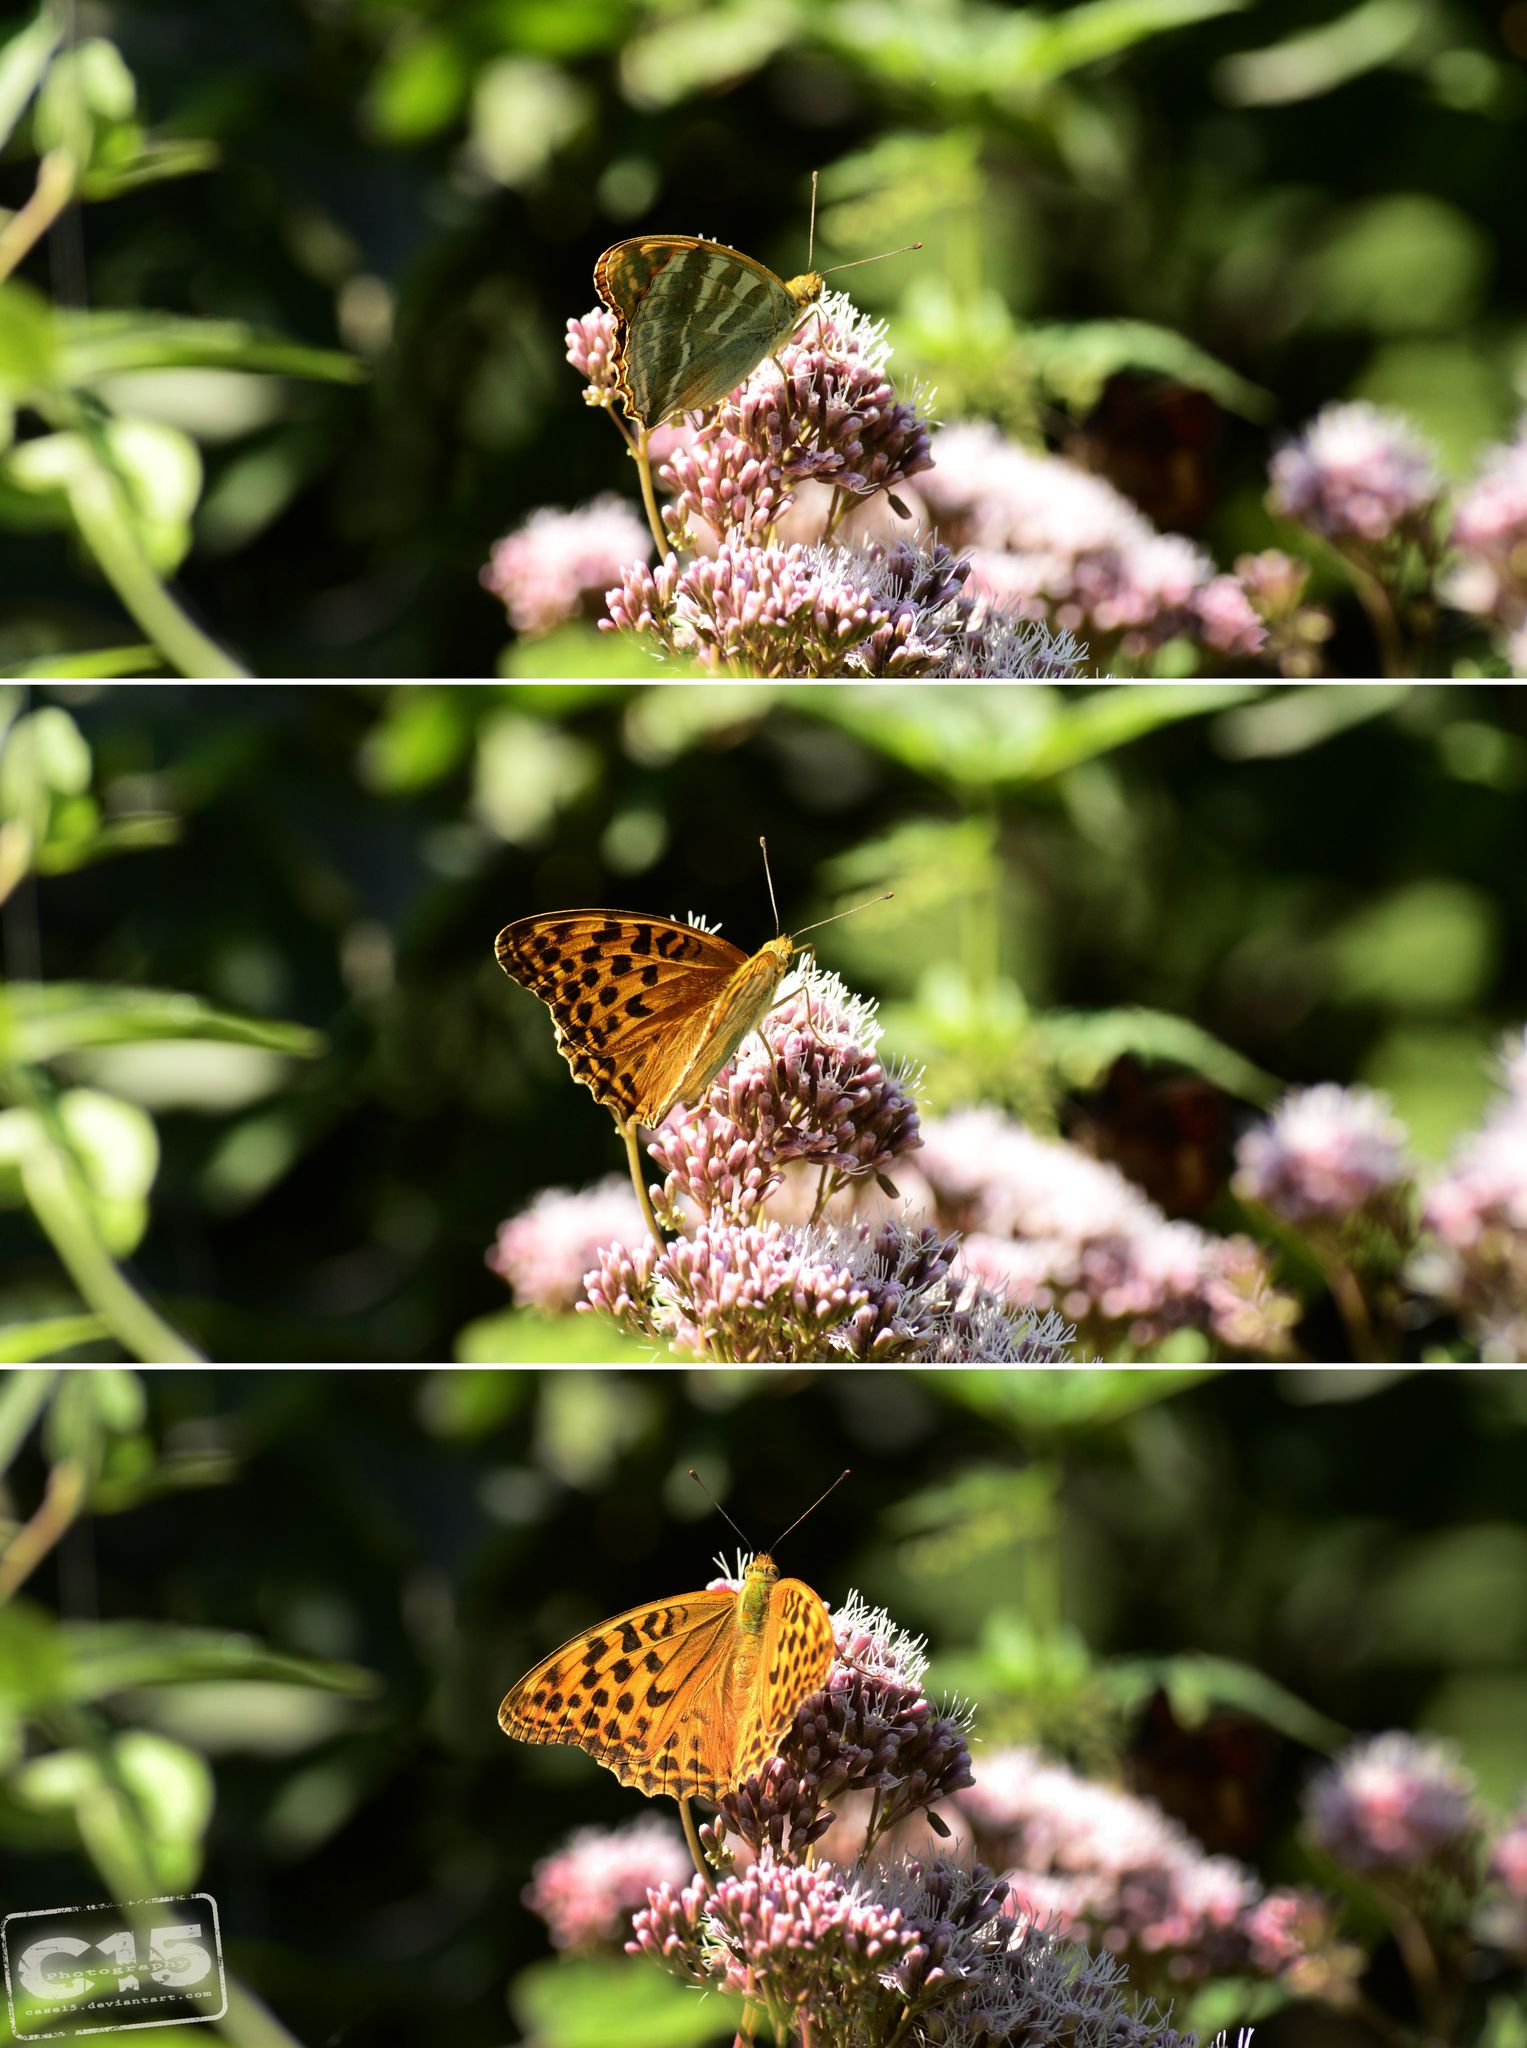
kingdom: Animalia
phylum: Arthropoda
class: Insecta
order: Lepidoptera
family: Nymphalidae
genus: Argynnis
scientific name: Argynnis paphia
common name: Silver-washed fritillary
